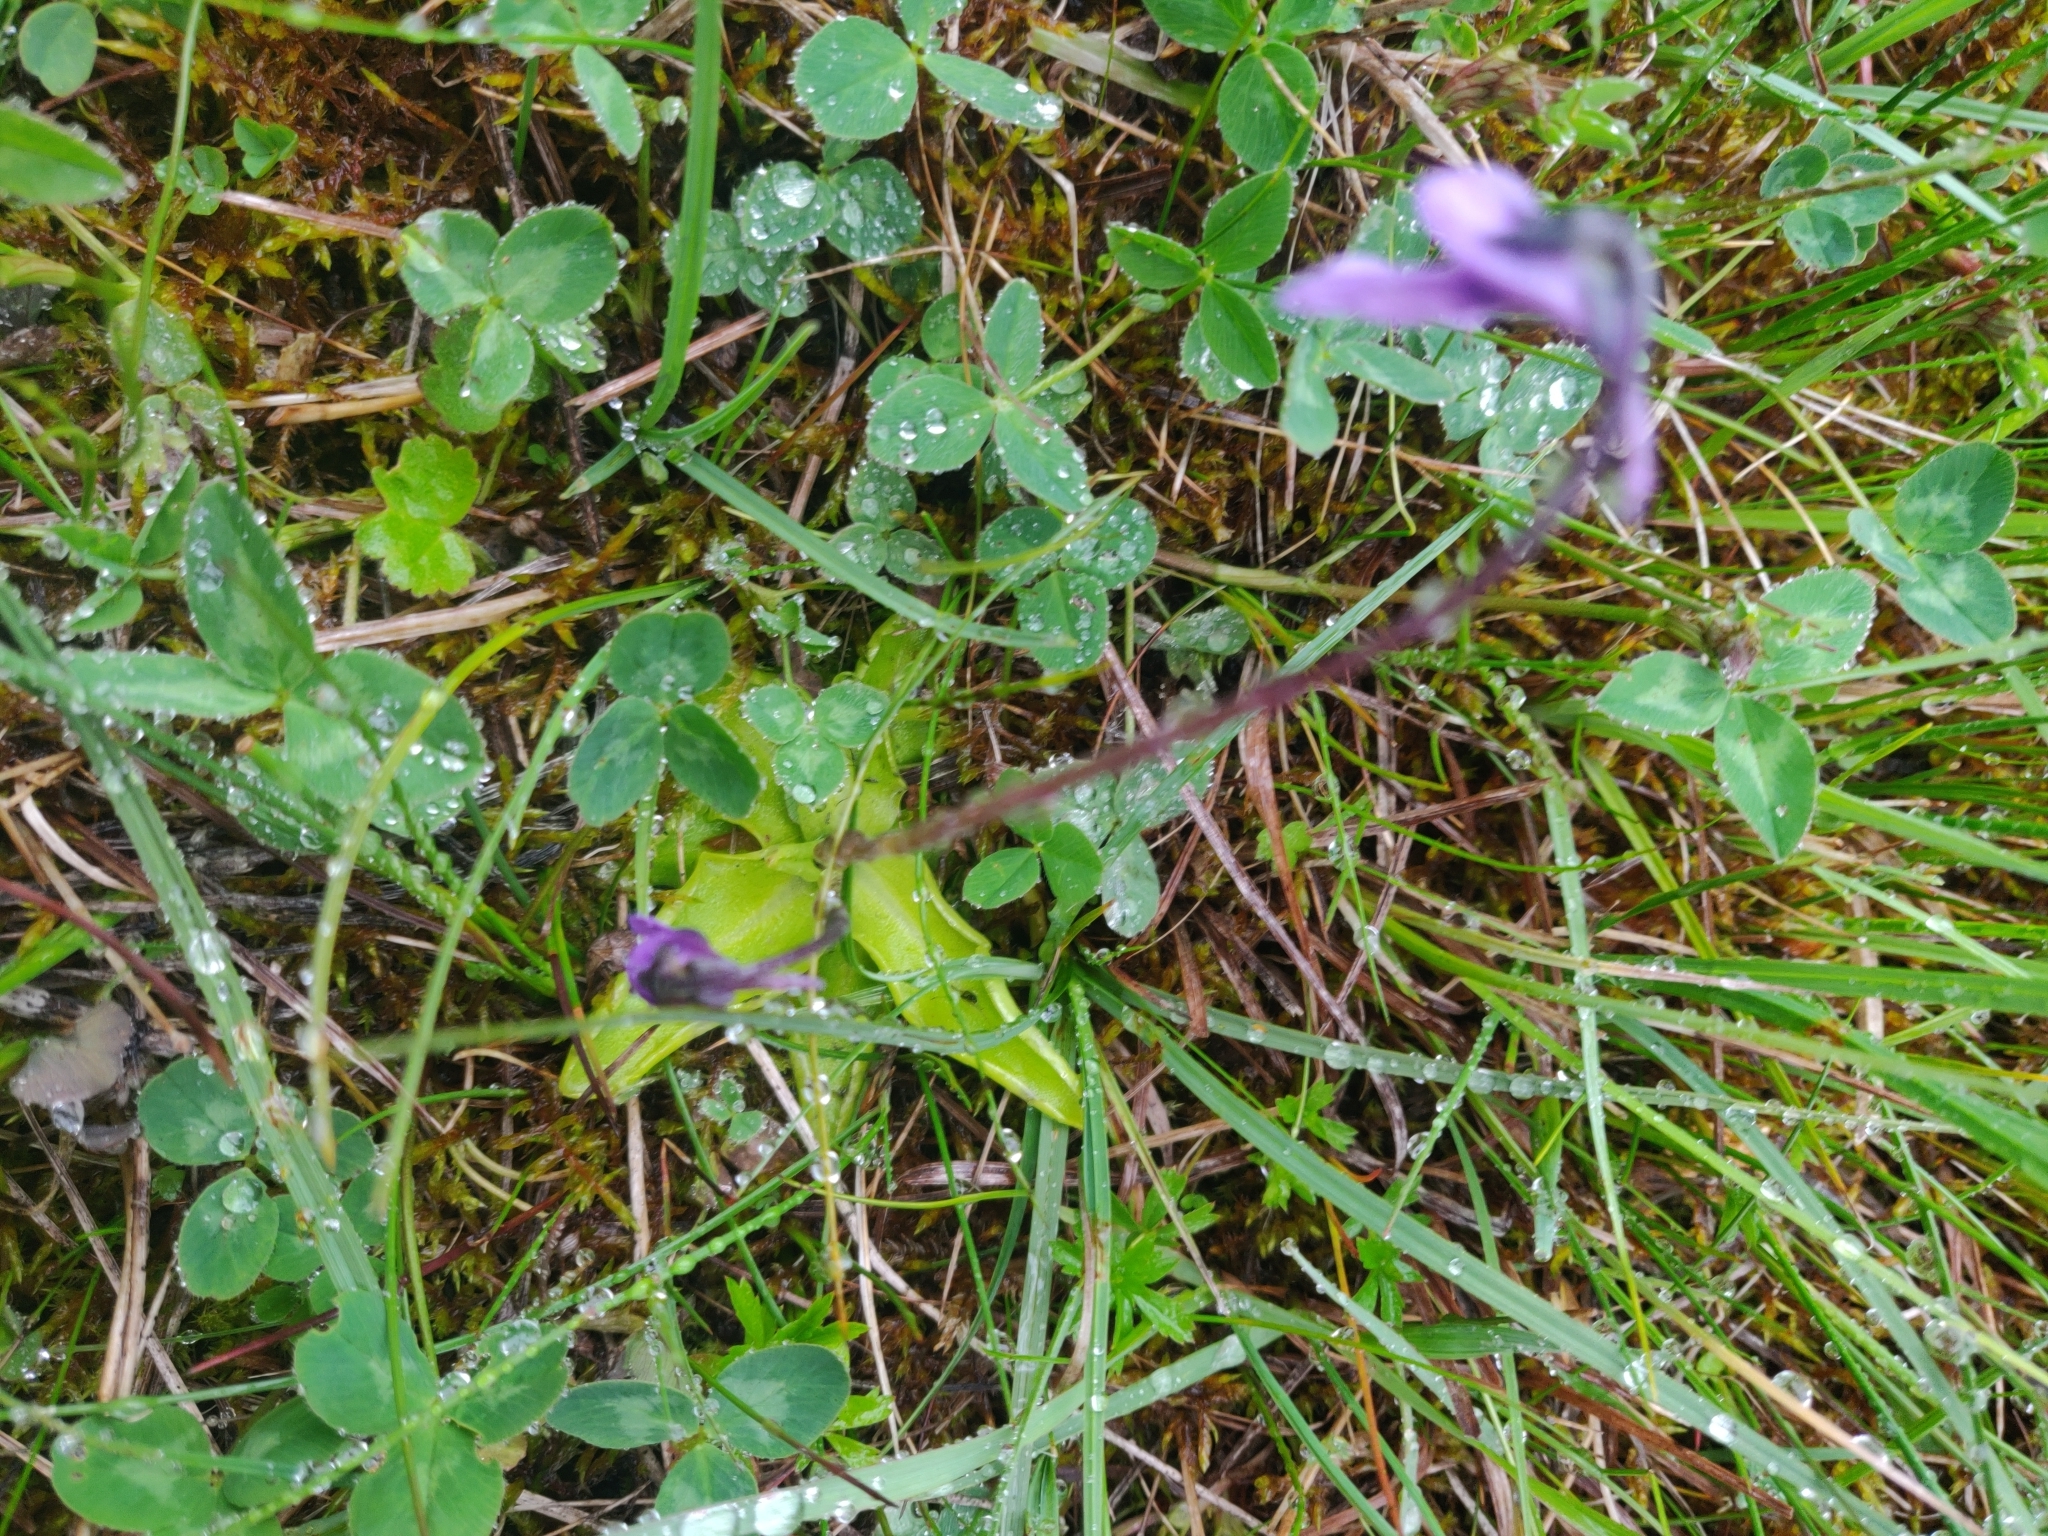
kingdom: Plantae
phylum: Tracheophyta
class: Magnoliopsida
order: Lamiales
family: Lentibulariaceae
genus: Pinguicula
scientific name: Pinguicula vulgaris
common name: Common butterwort
